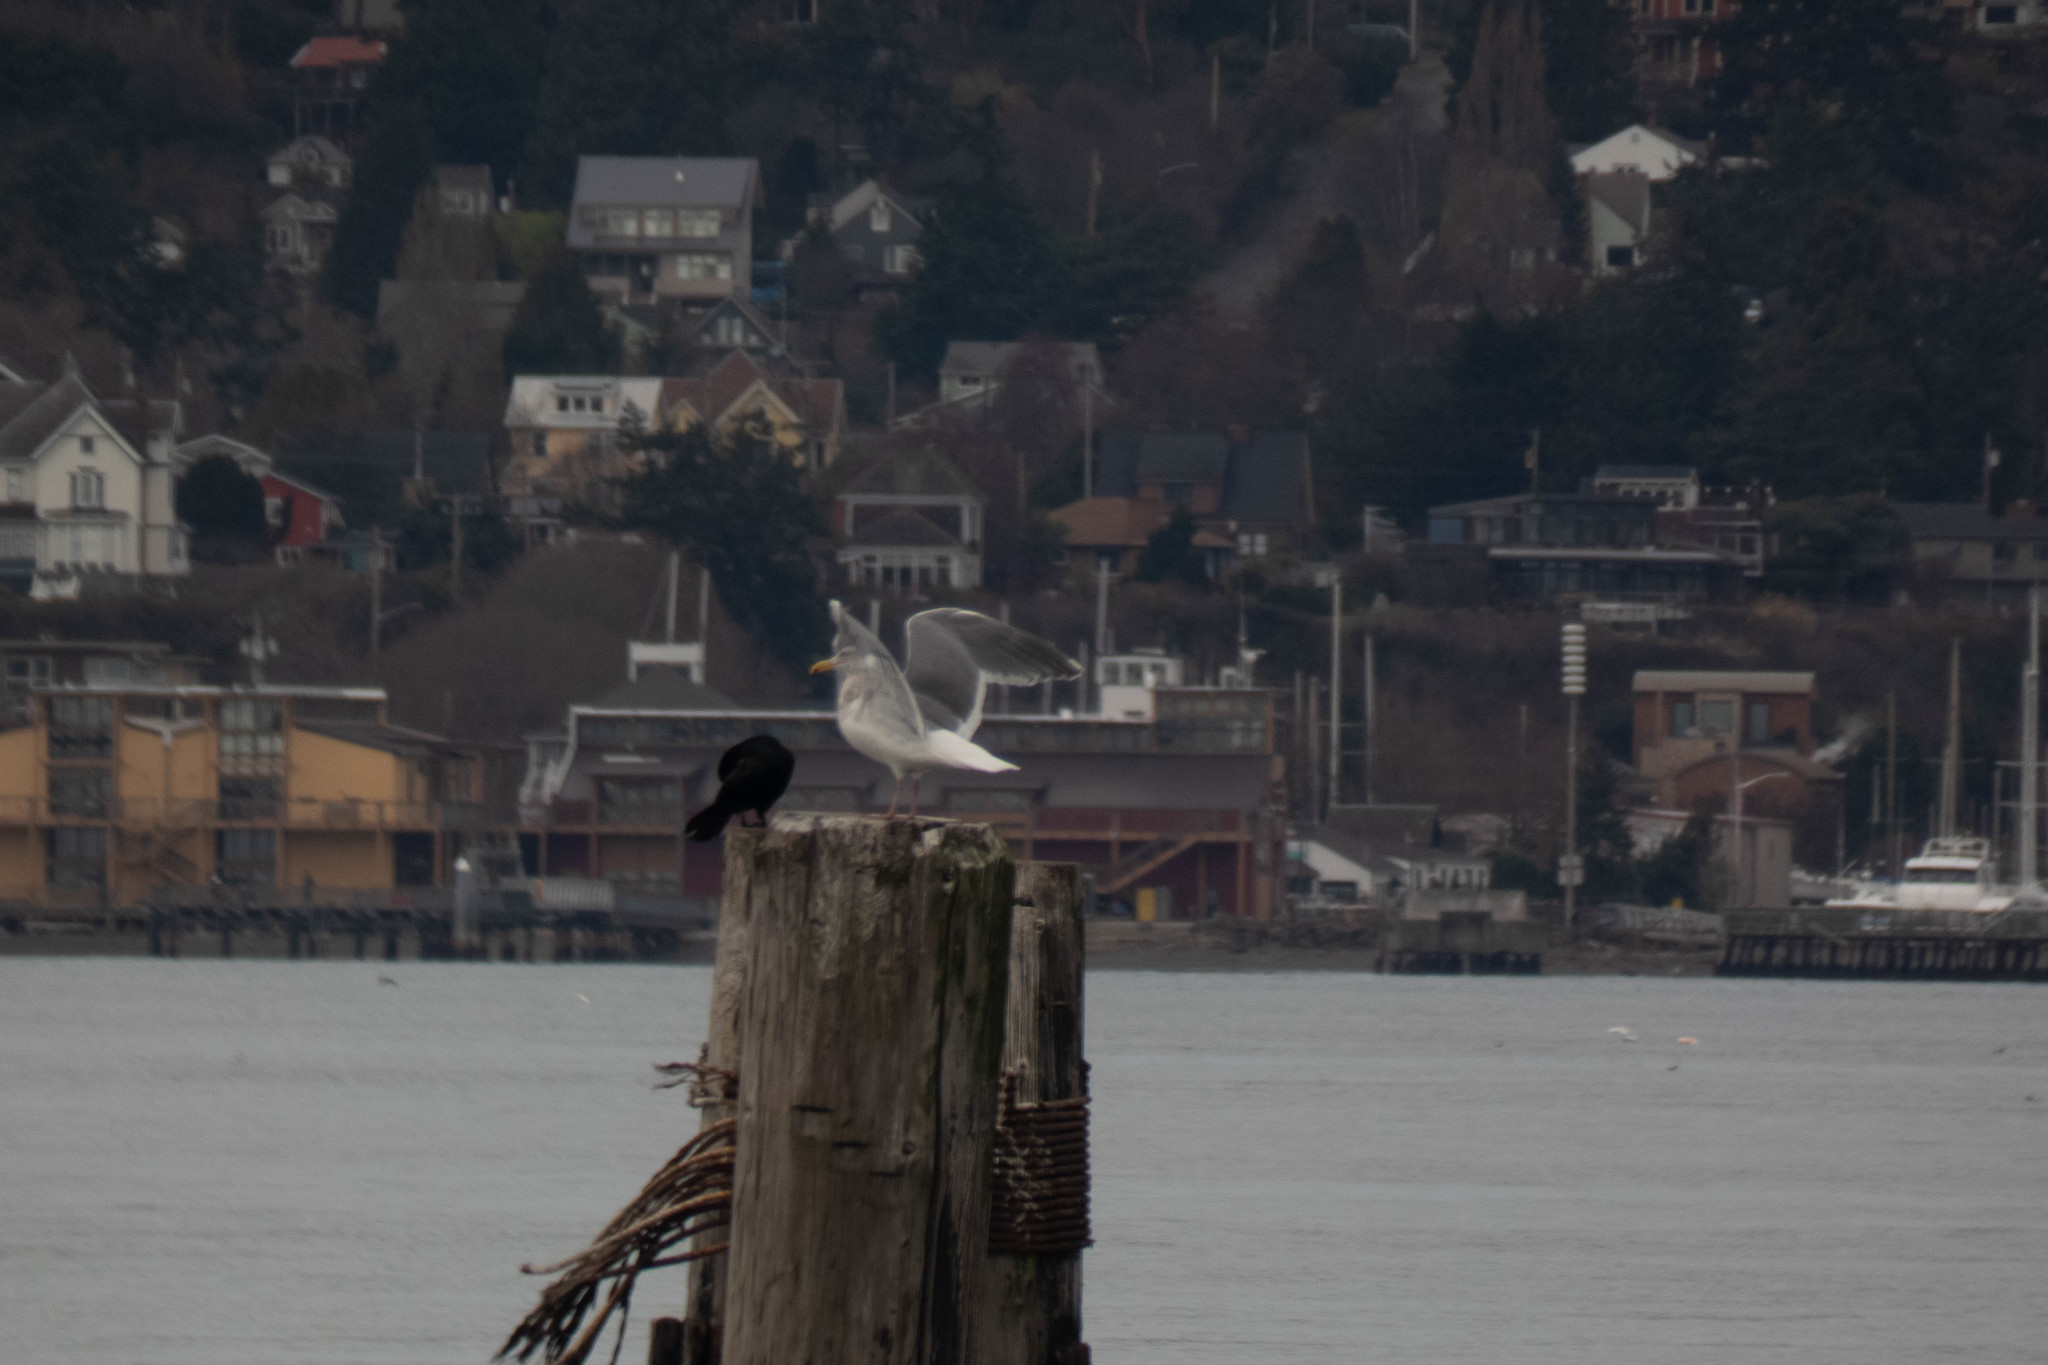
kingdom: Animalia
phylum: Chordata
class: Aves
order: Suliformes
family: Phalacrocoracidae
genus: Phalacrocorax
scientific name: Phalacrocorax pelagicus
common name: Pelagic cormorant
